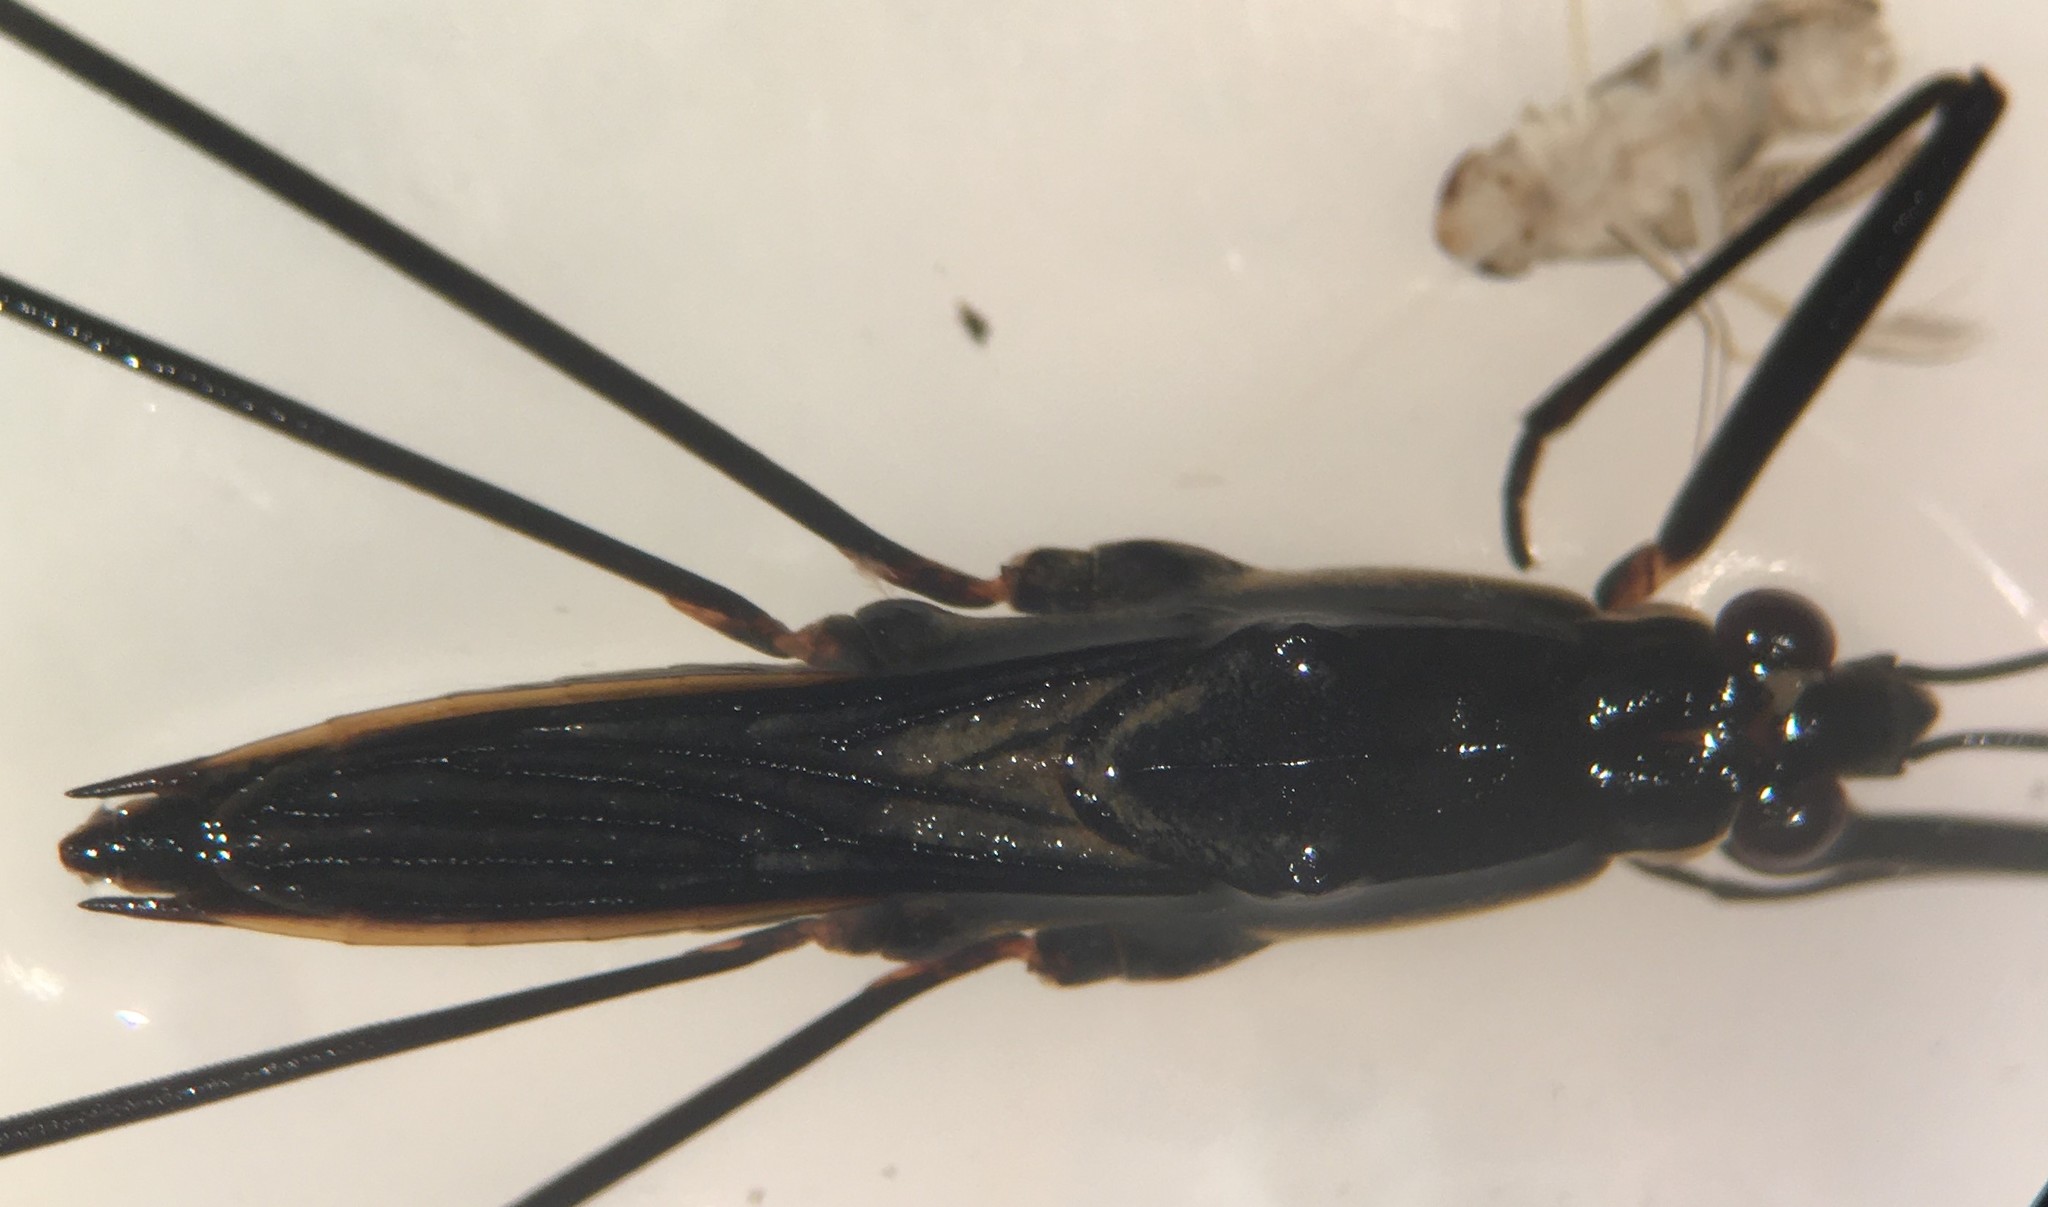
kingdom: Animalia
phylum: Arthropoda
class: Insecta
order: Hemiptera
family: Gerridae
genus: Aquarius
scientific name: Aquarius conformis
